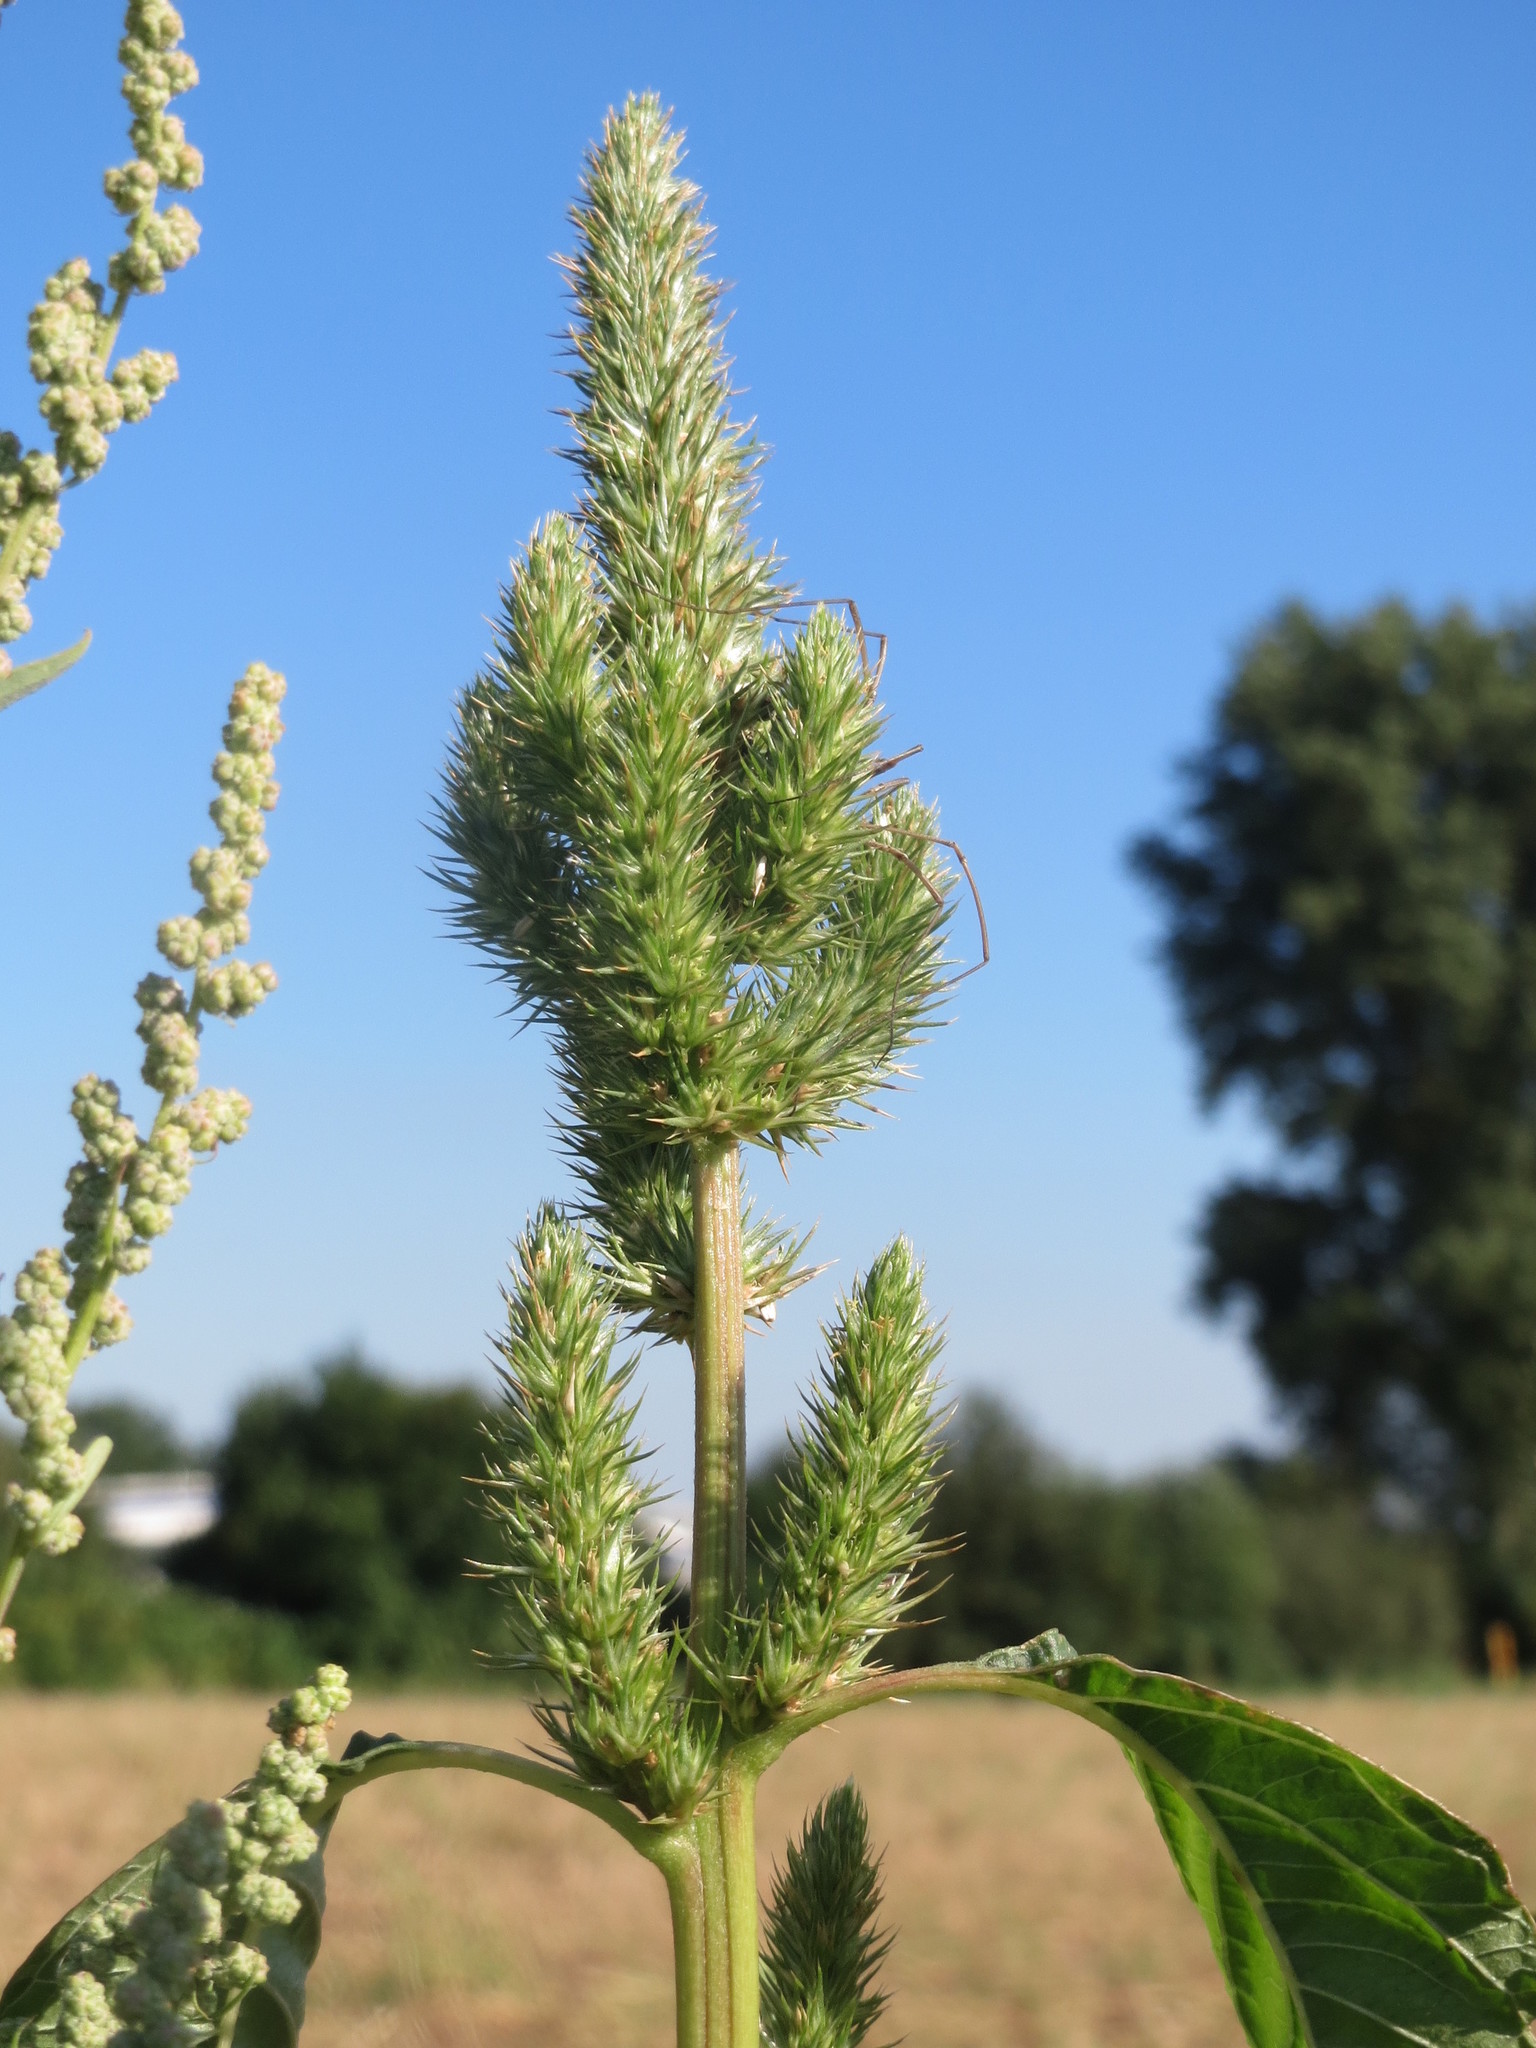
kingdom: Plantae
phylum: Tracheophyta
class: Magnoliopsida
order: Caryophyllales
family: Amaranthaceae
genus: Amaranthus
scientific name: Amaranthus powellii
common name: Powell's amaranth
